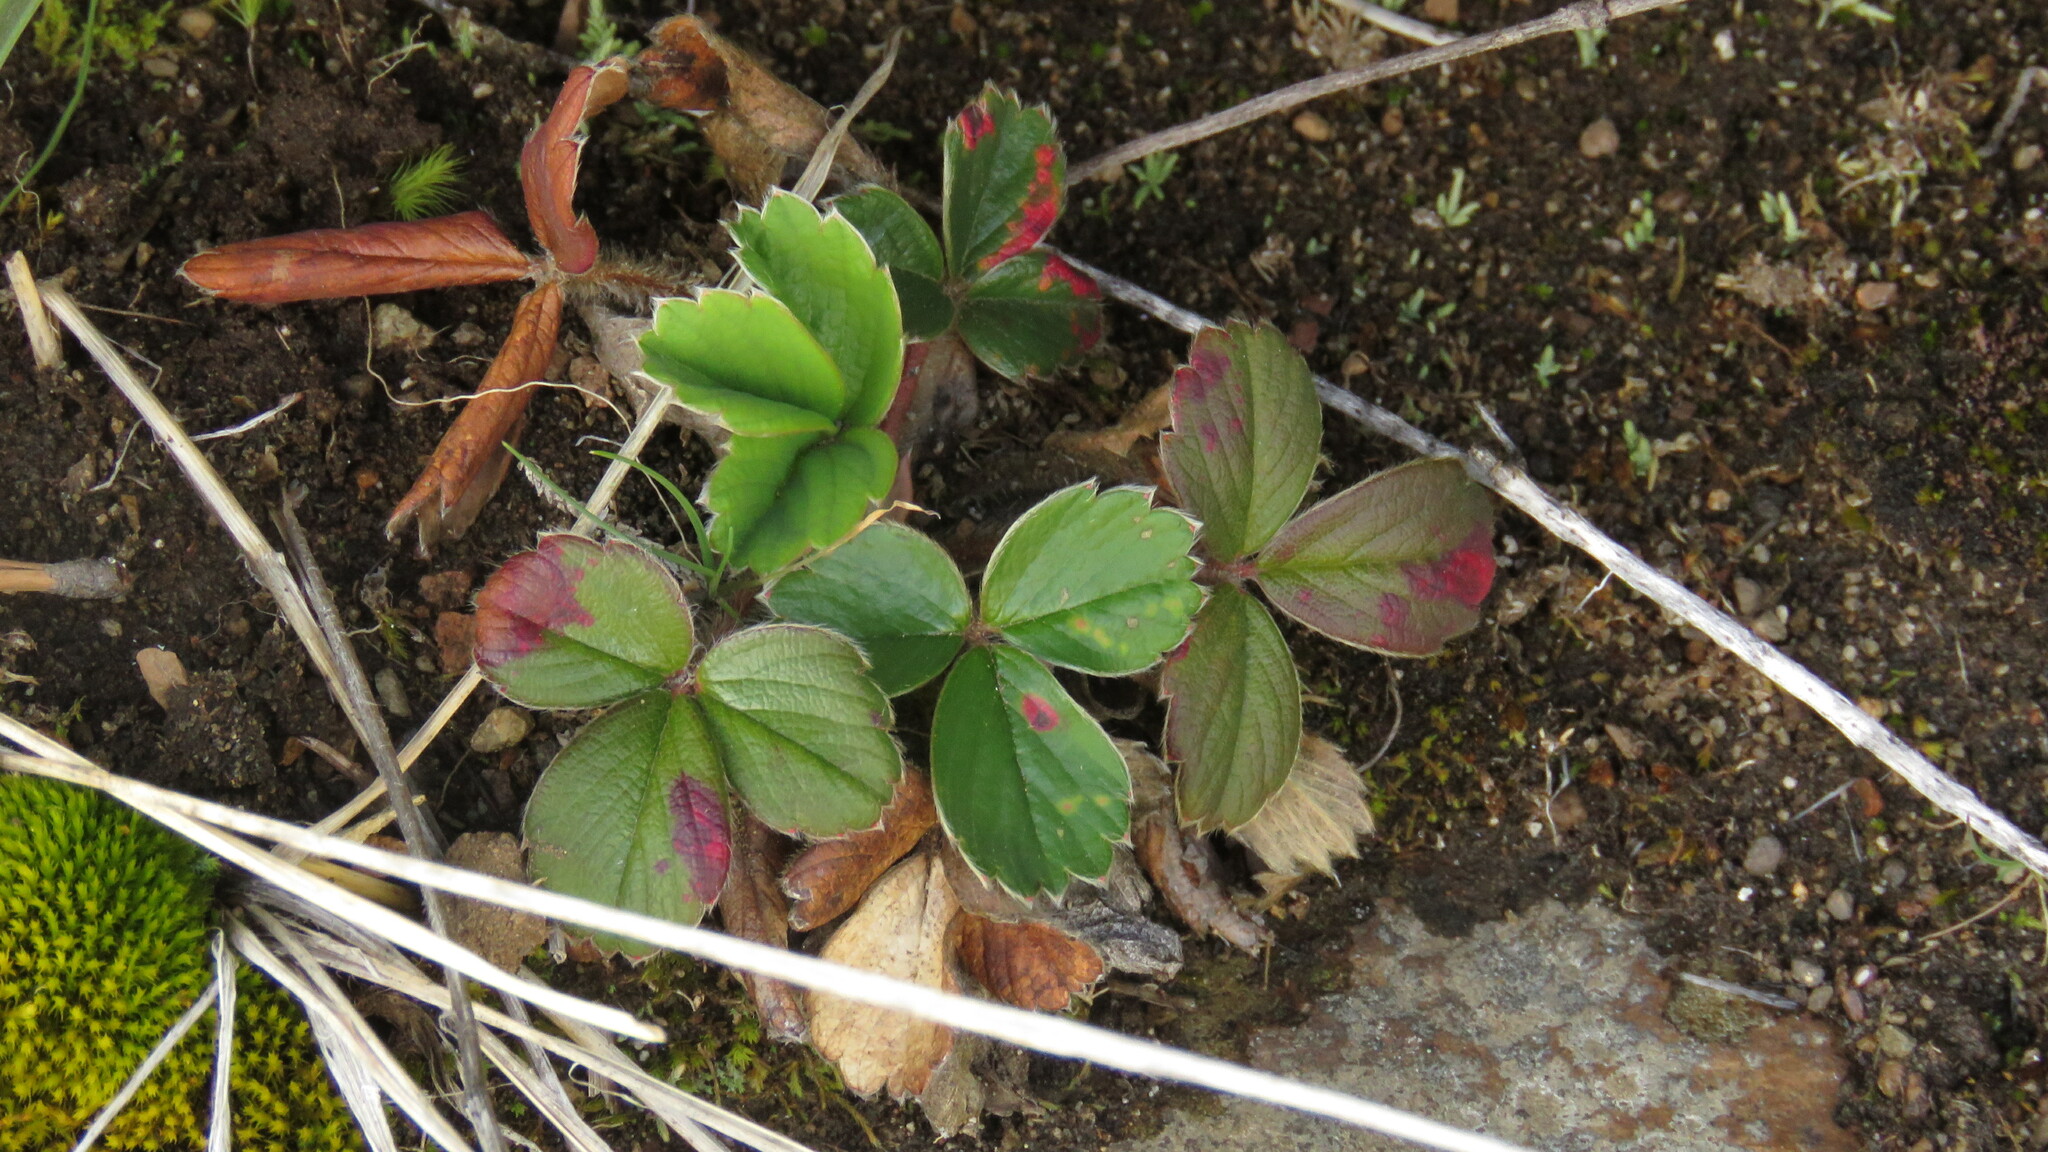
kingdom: Plantae
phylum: Tracheophyta
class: Magnoliopsida
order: Rosales
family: Rosaceae
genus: Fragaria
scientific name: Fragaria chiloensis
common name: Beach strawberry
